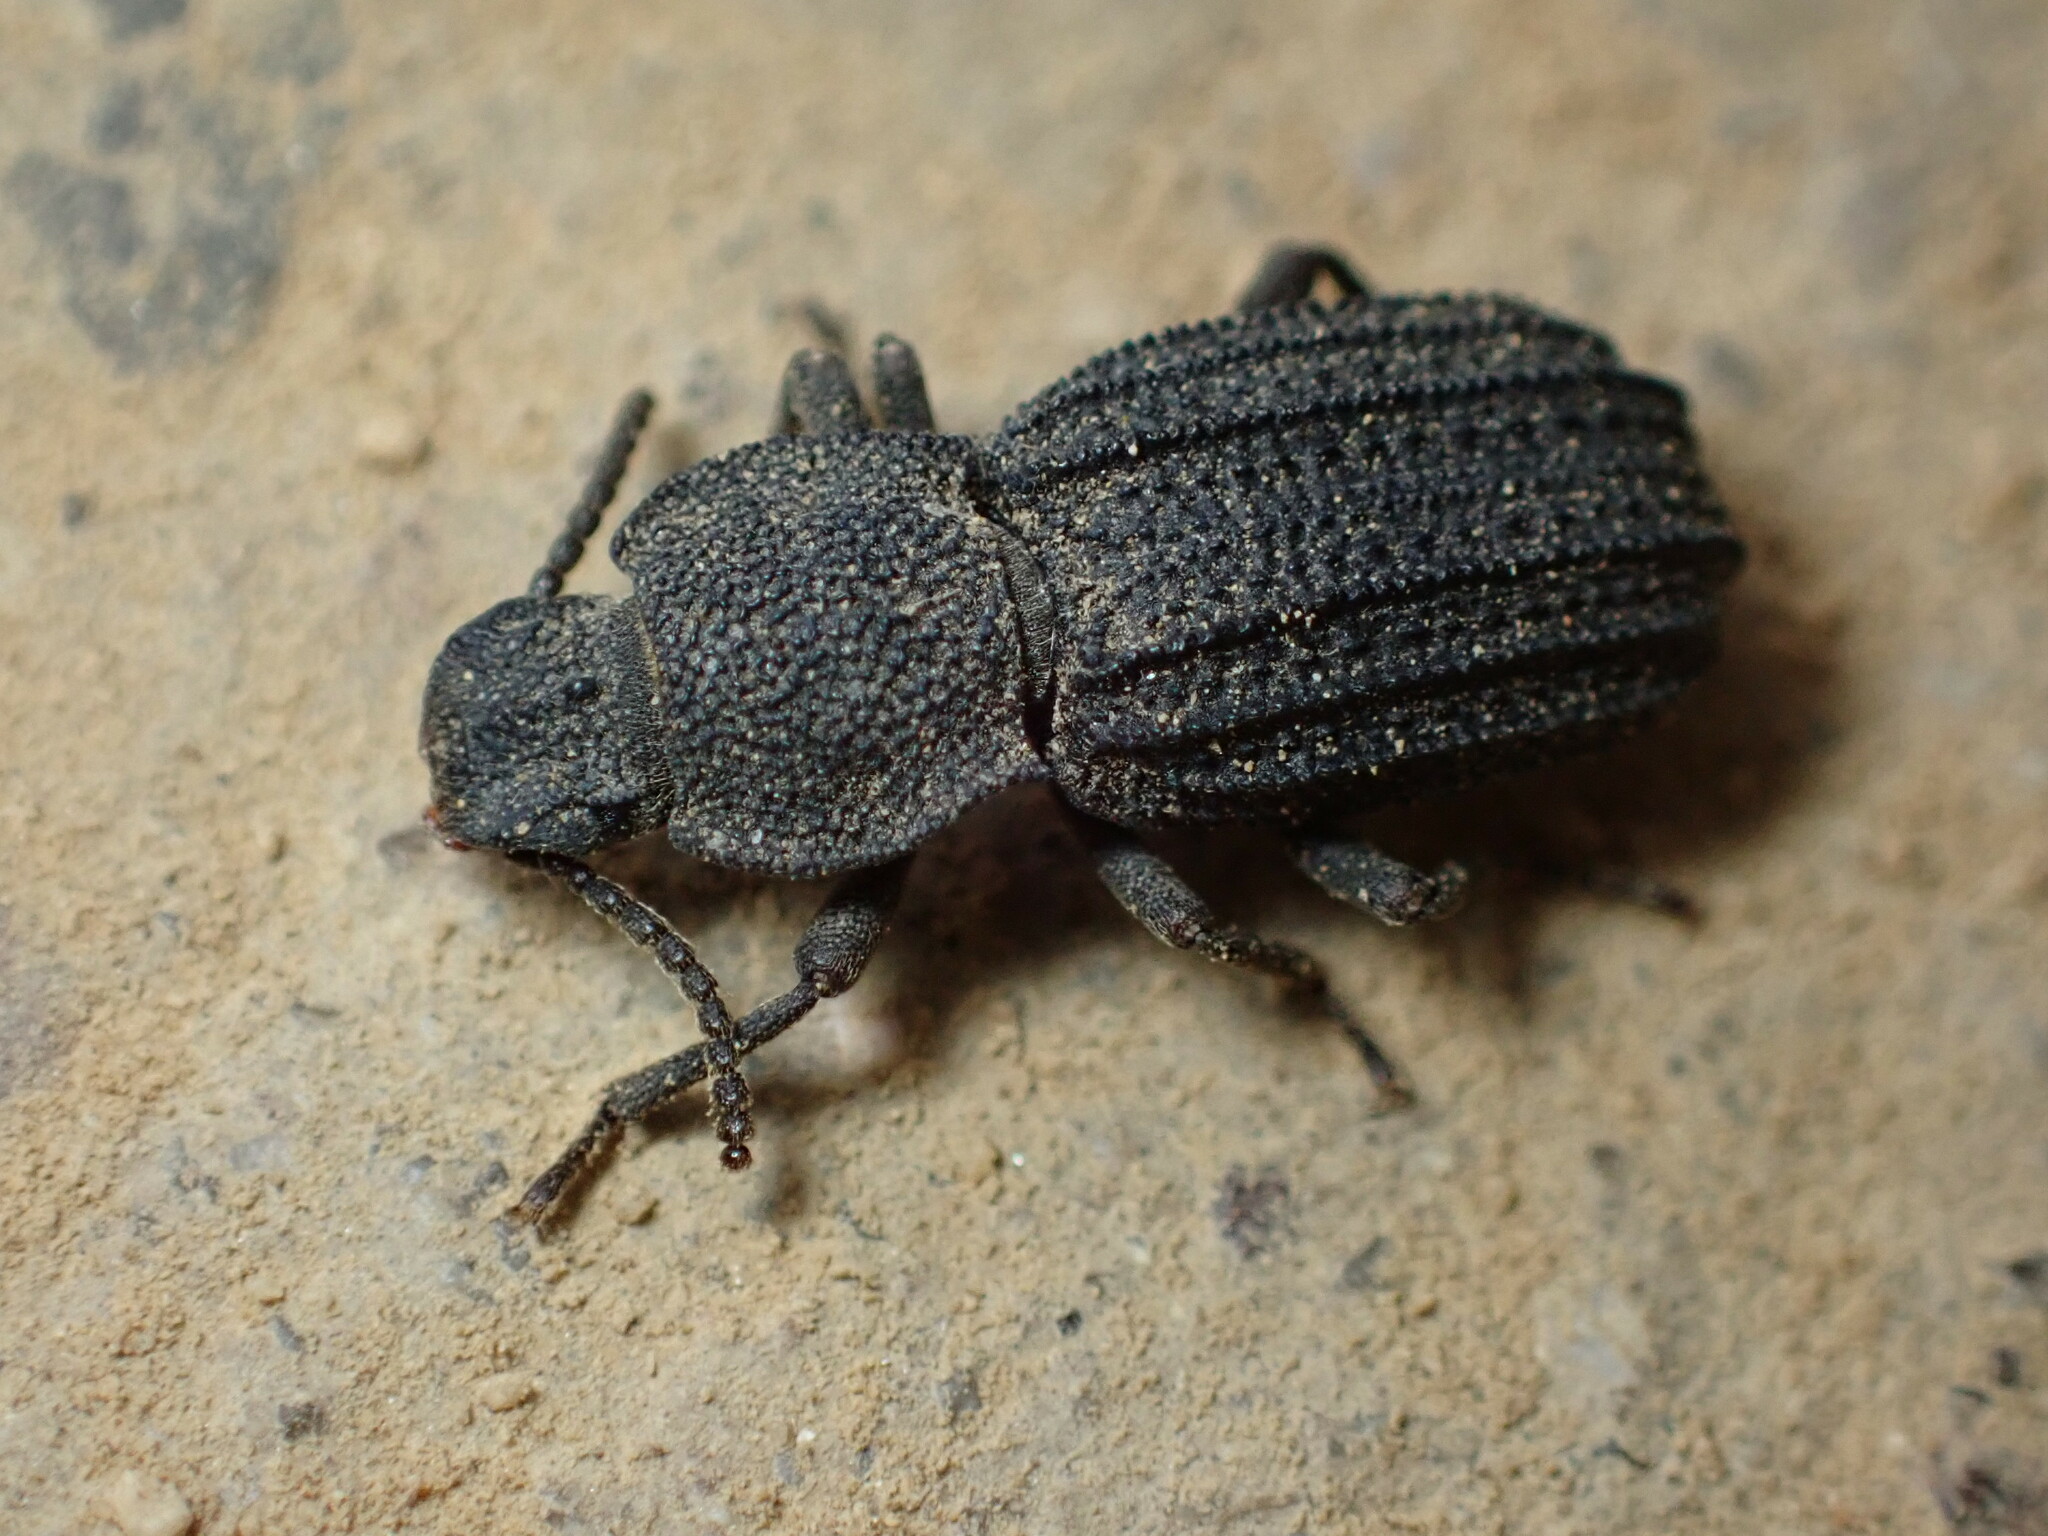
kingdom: Animalia
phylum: Arthropoda
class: Insecta
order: Coleoptera
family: Tenebrionidae
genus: Nyctoporis
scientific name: Nyctoporis carinata
